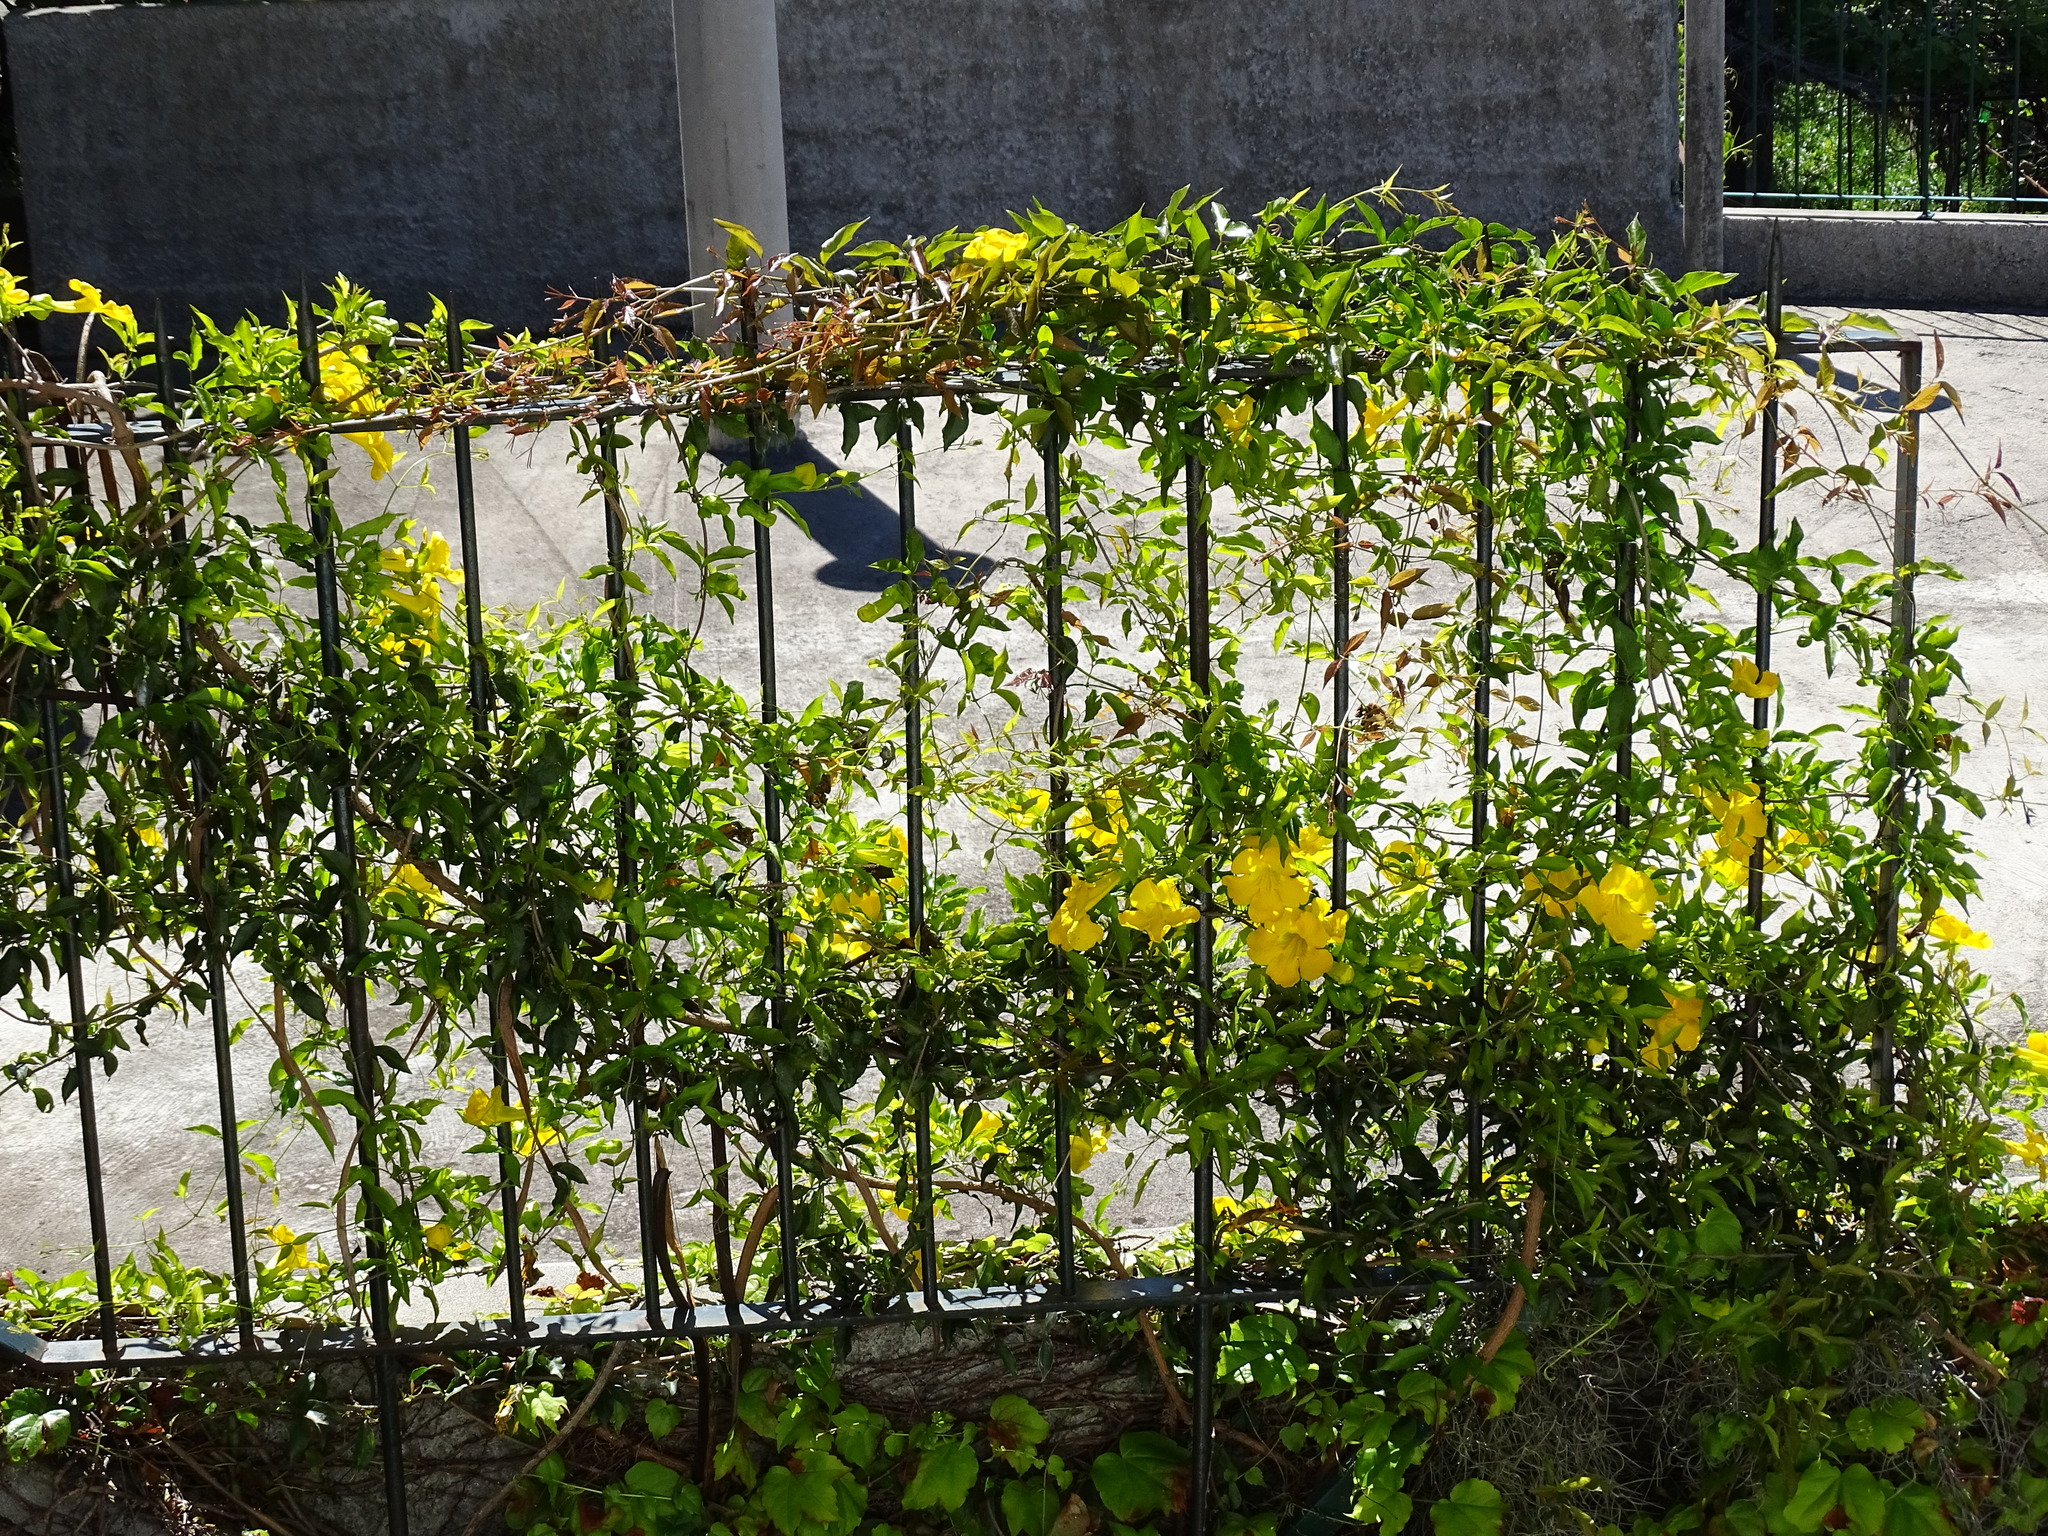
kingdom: Plantae
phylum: Tracheophyta
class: Magnoliopsida
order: Lamiales
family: Bignoniaceae
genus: Dolichandra
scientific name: Dolichandra unguis-cati
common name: Catclaw vine
